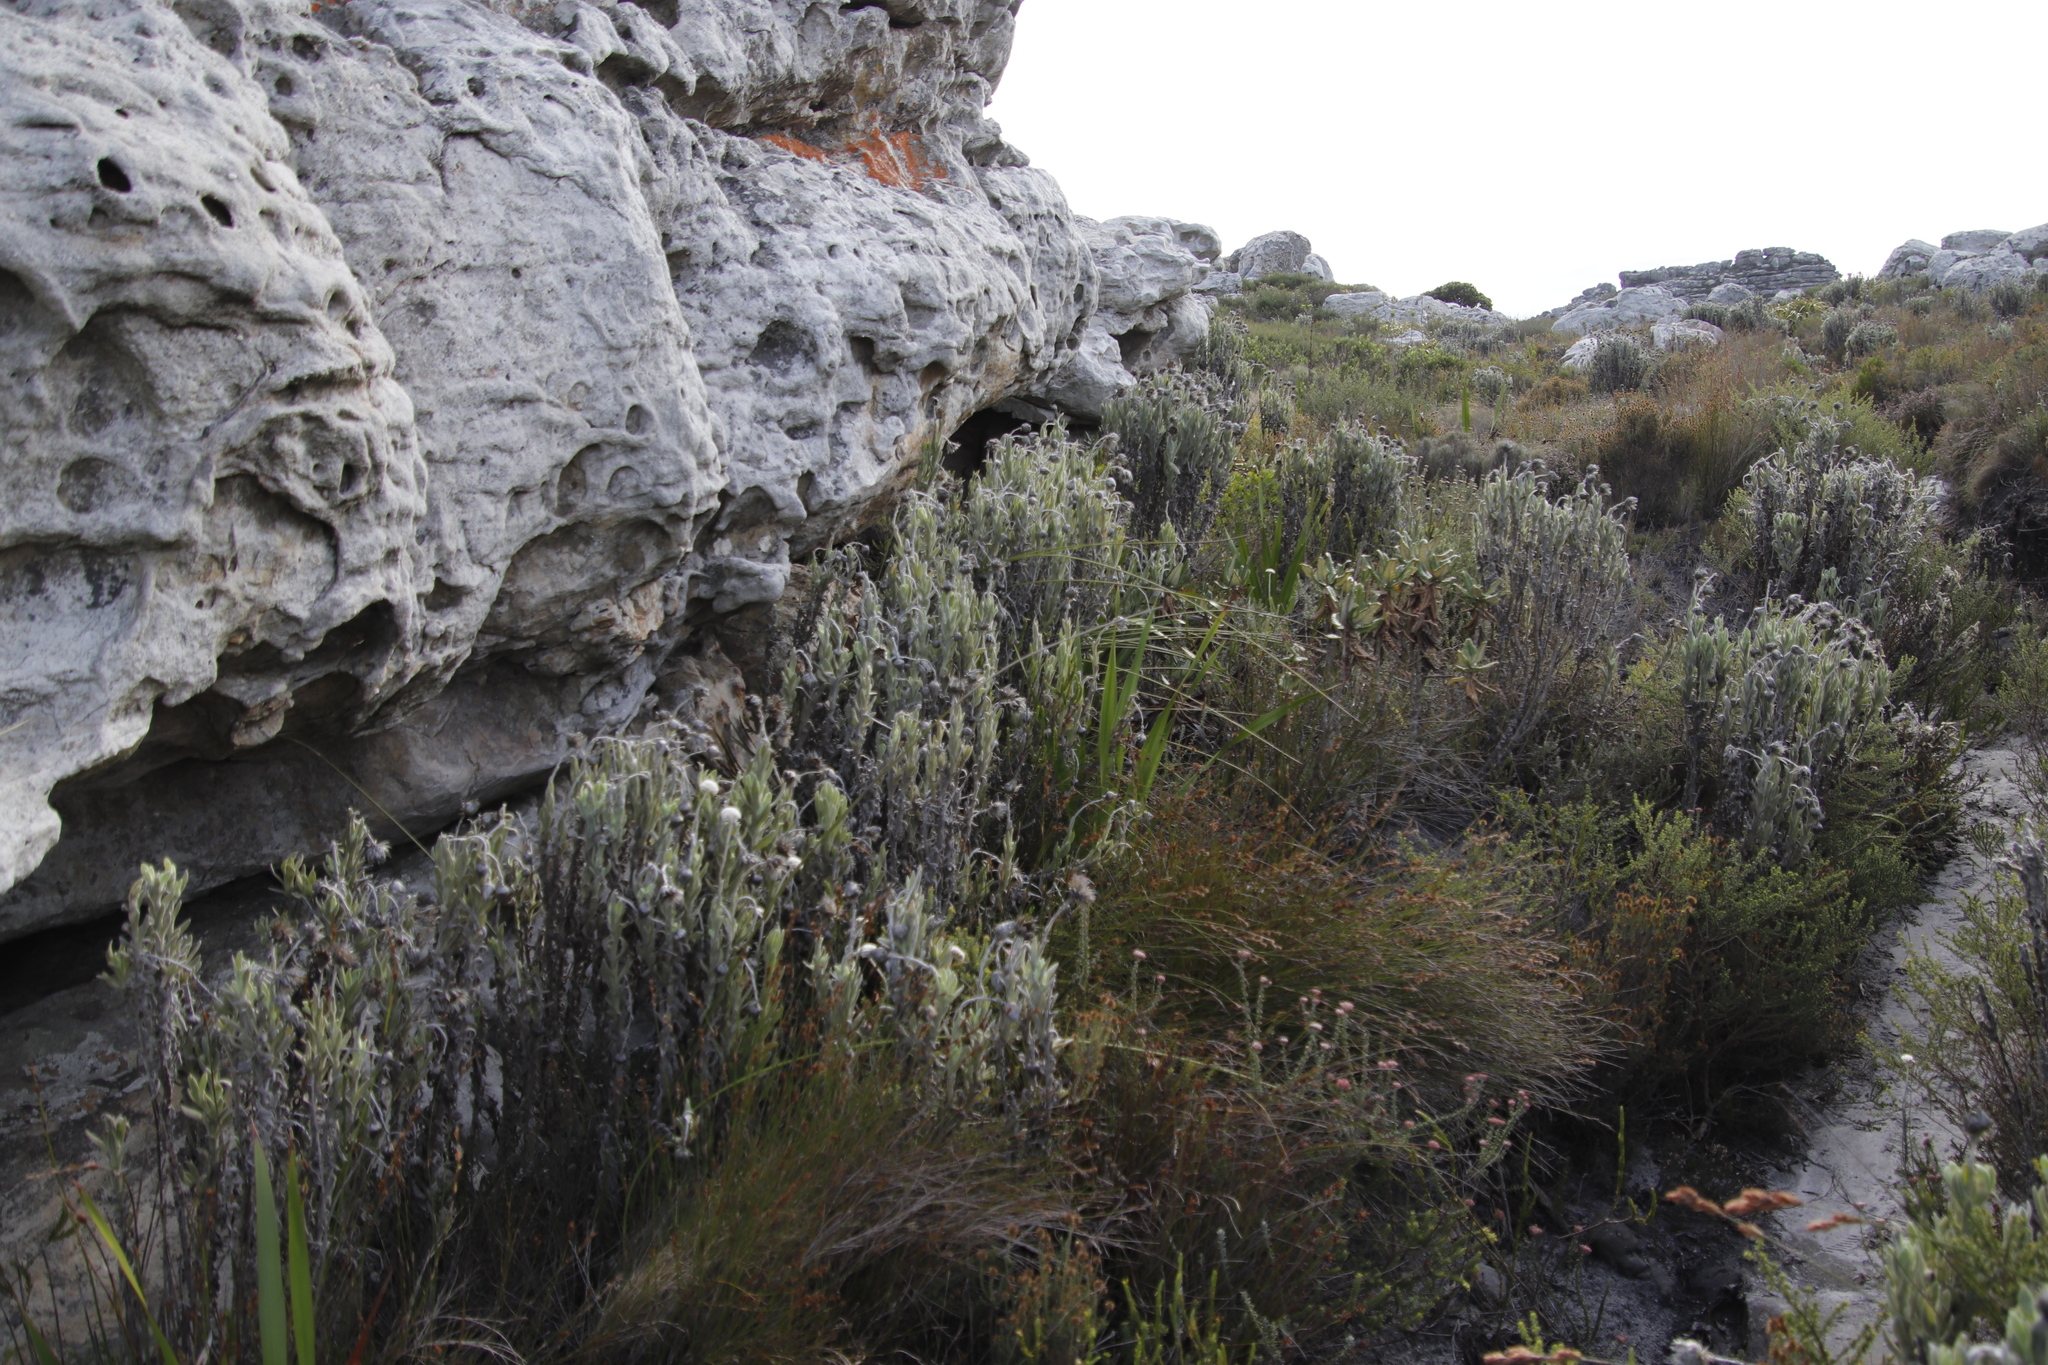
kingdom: Plantae
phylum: Tracheophyta
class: Magnoliopsida
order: Asterales
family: Asteraceae
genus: Syncarpha
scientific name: Syncarpha vestita
